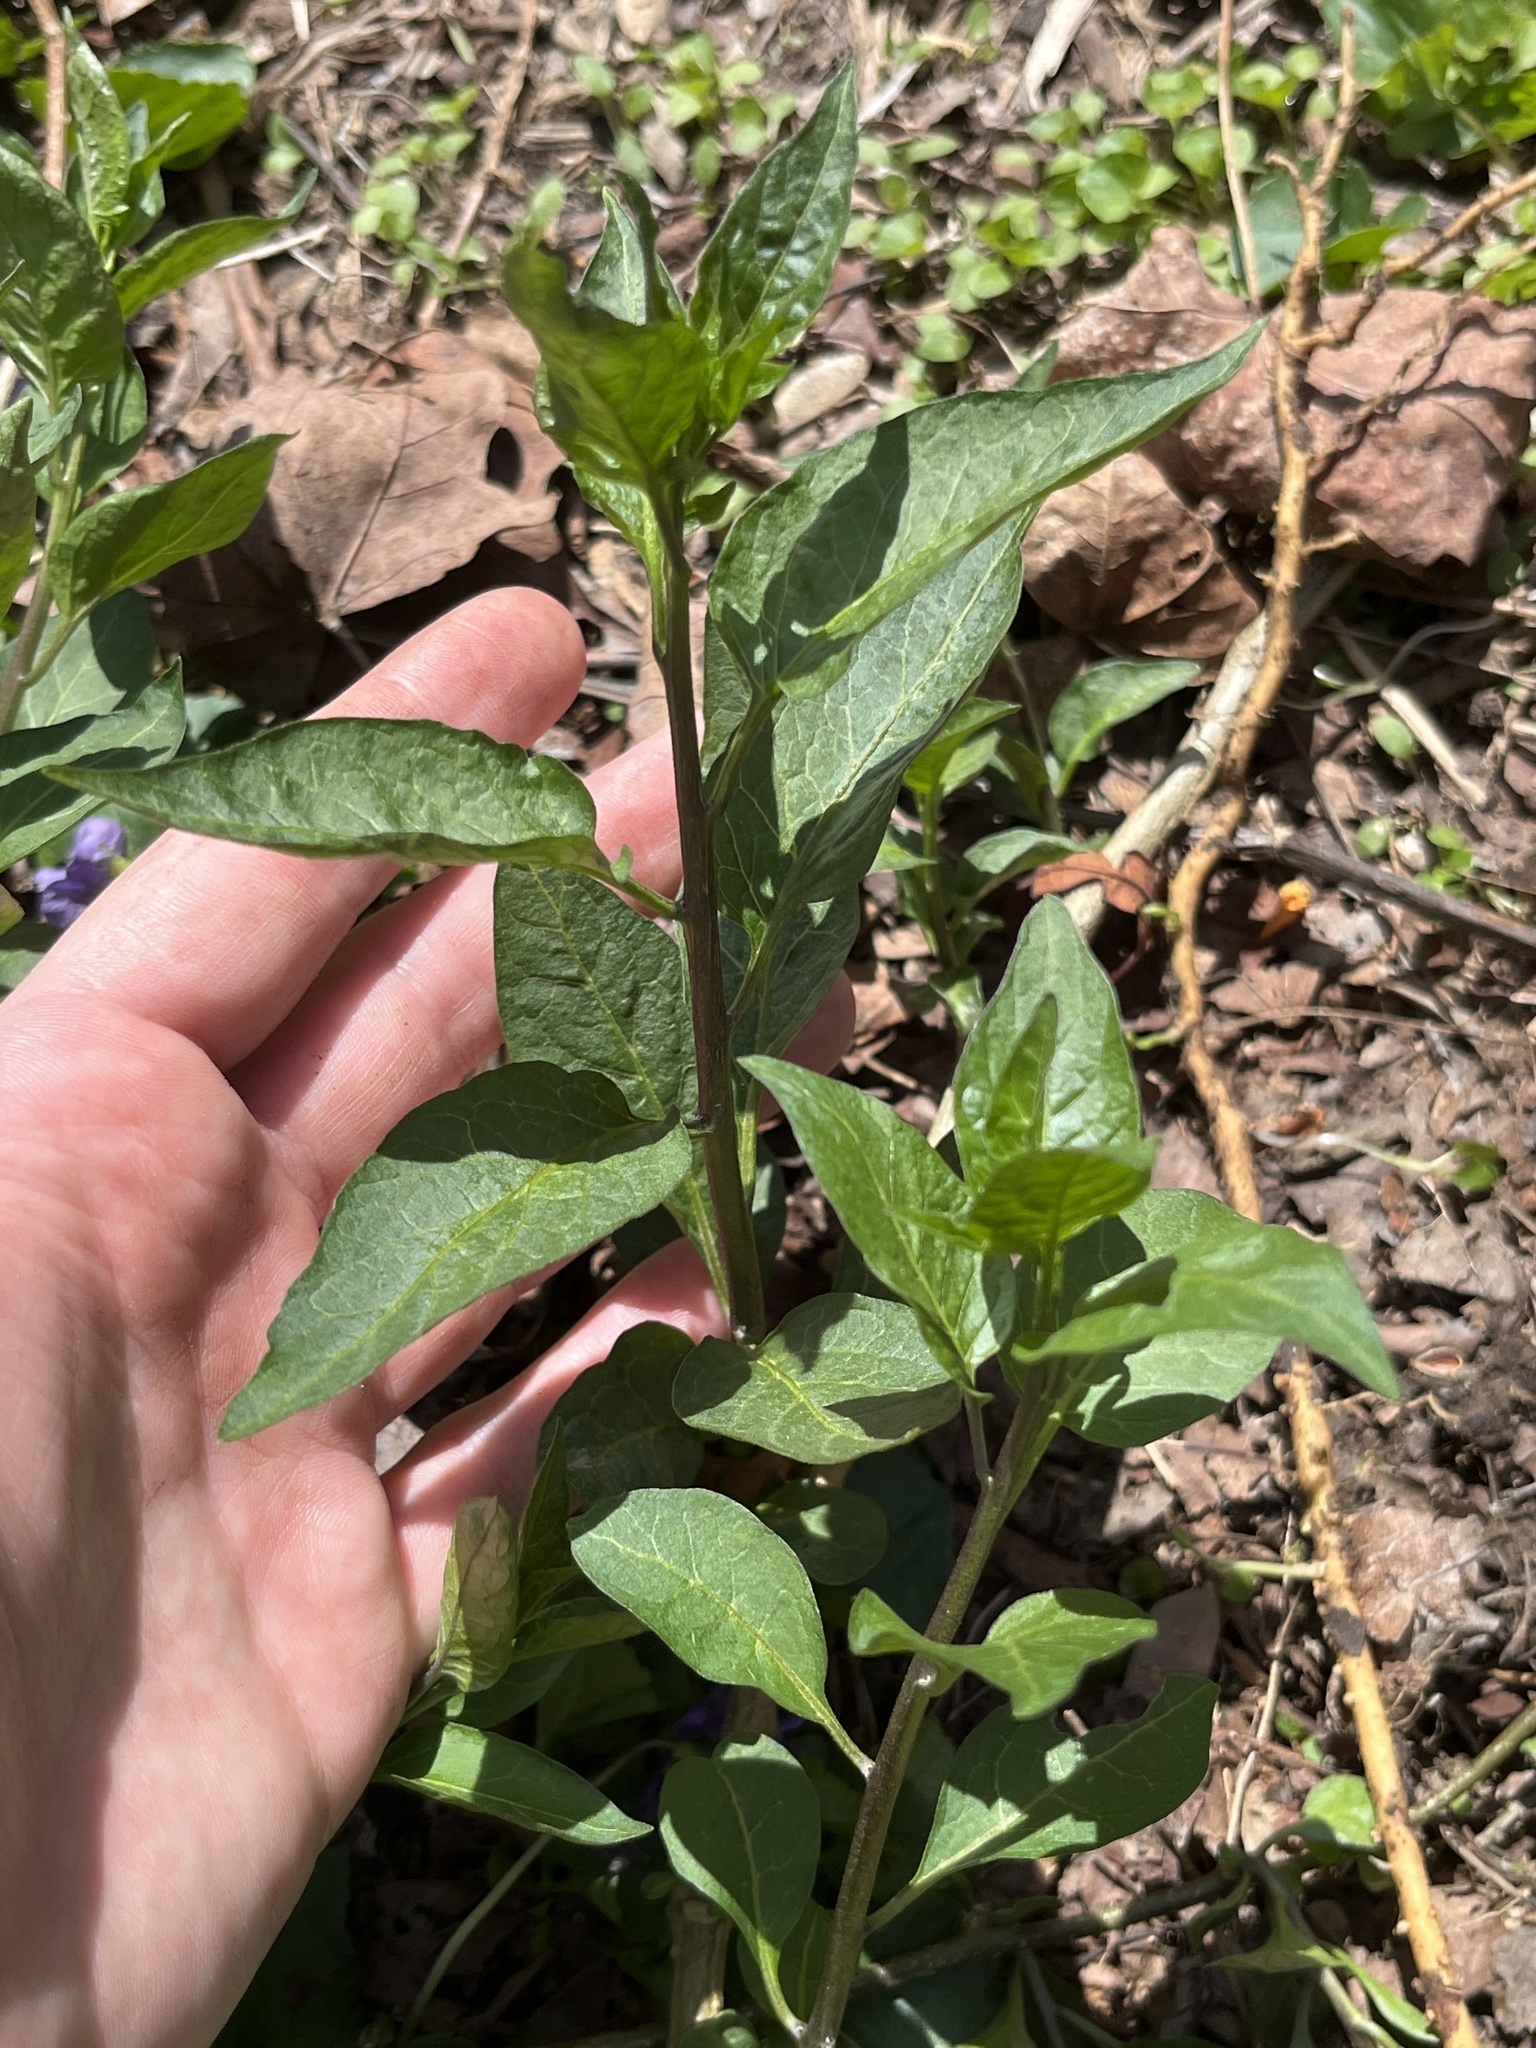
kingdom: Plantae
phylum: Tracheophyta
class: Magnoliopsida
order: Solanales
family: Solanaceae
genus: Solanum
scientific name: Solanum dulcamara
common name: Climbing nightshade
